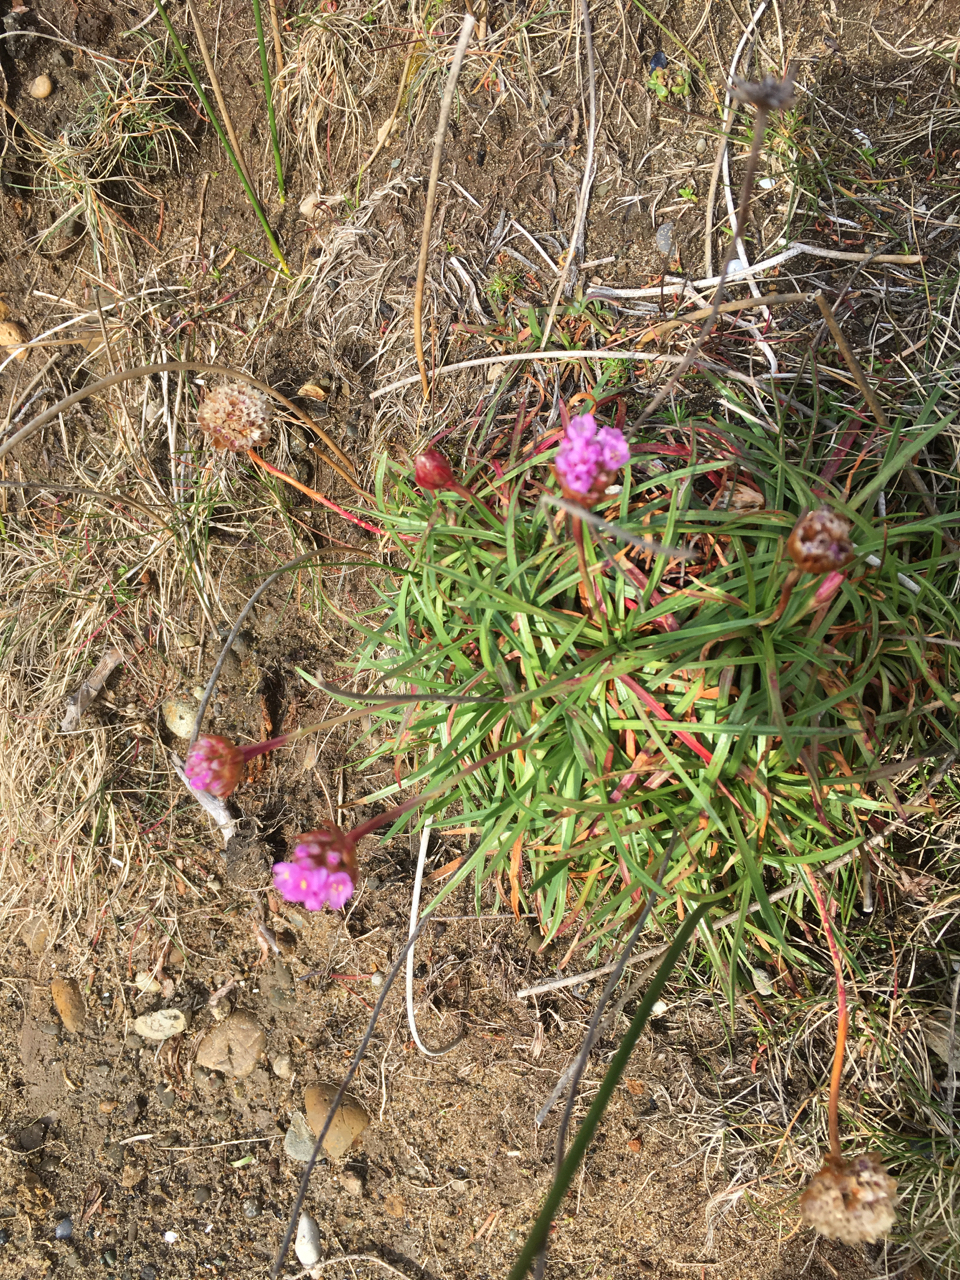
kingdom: Plantae
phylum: Tracheophyta
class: Magnoliopsida
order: Caryophyllales
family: Plumbaginaceae
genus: Armeria
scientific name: Armeria maritima
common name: Thrift
